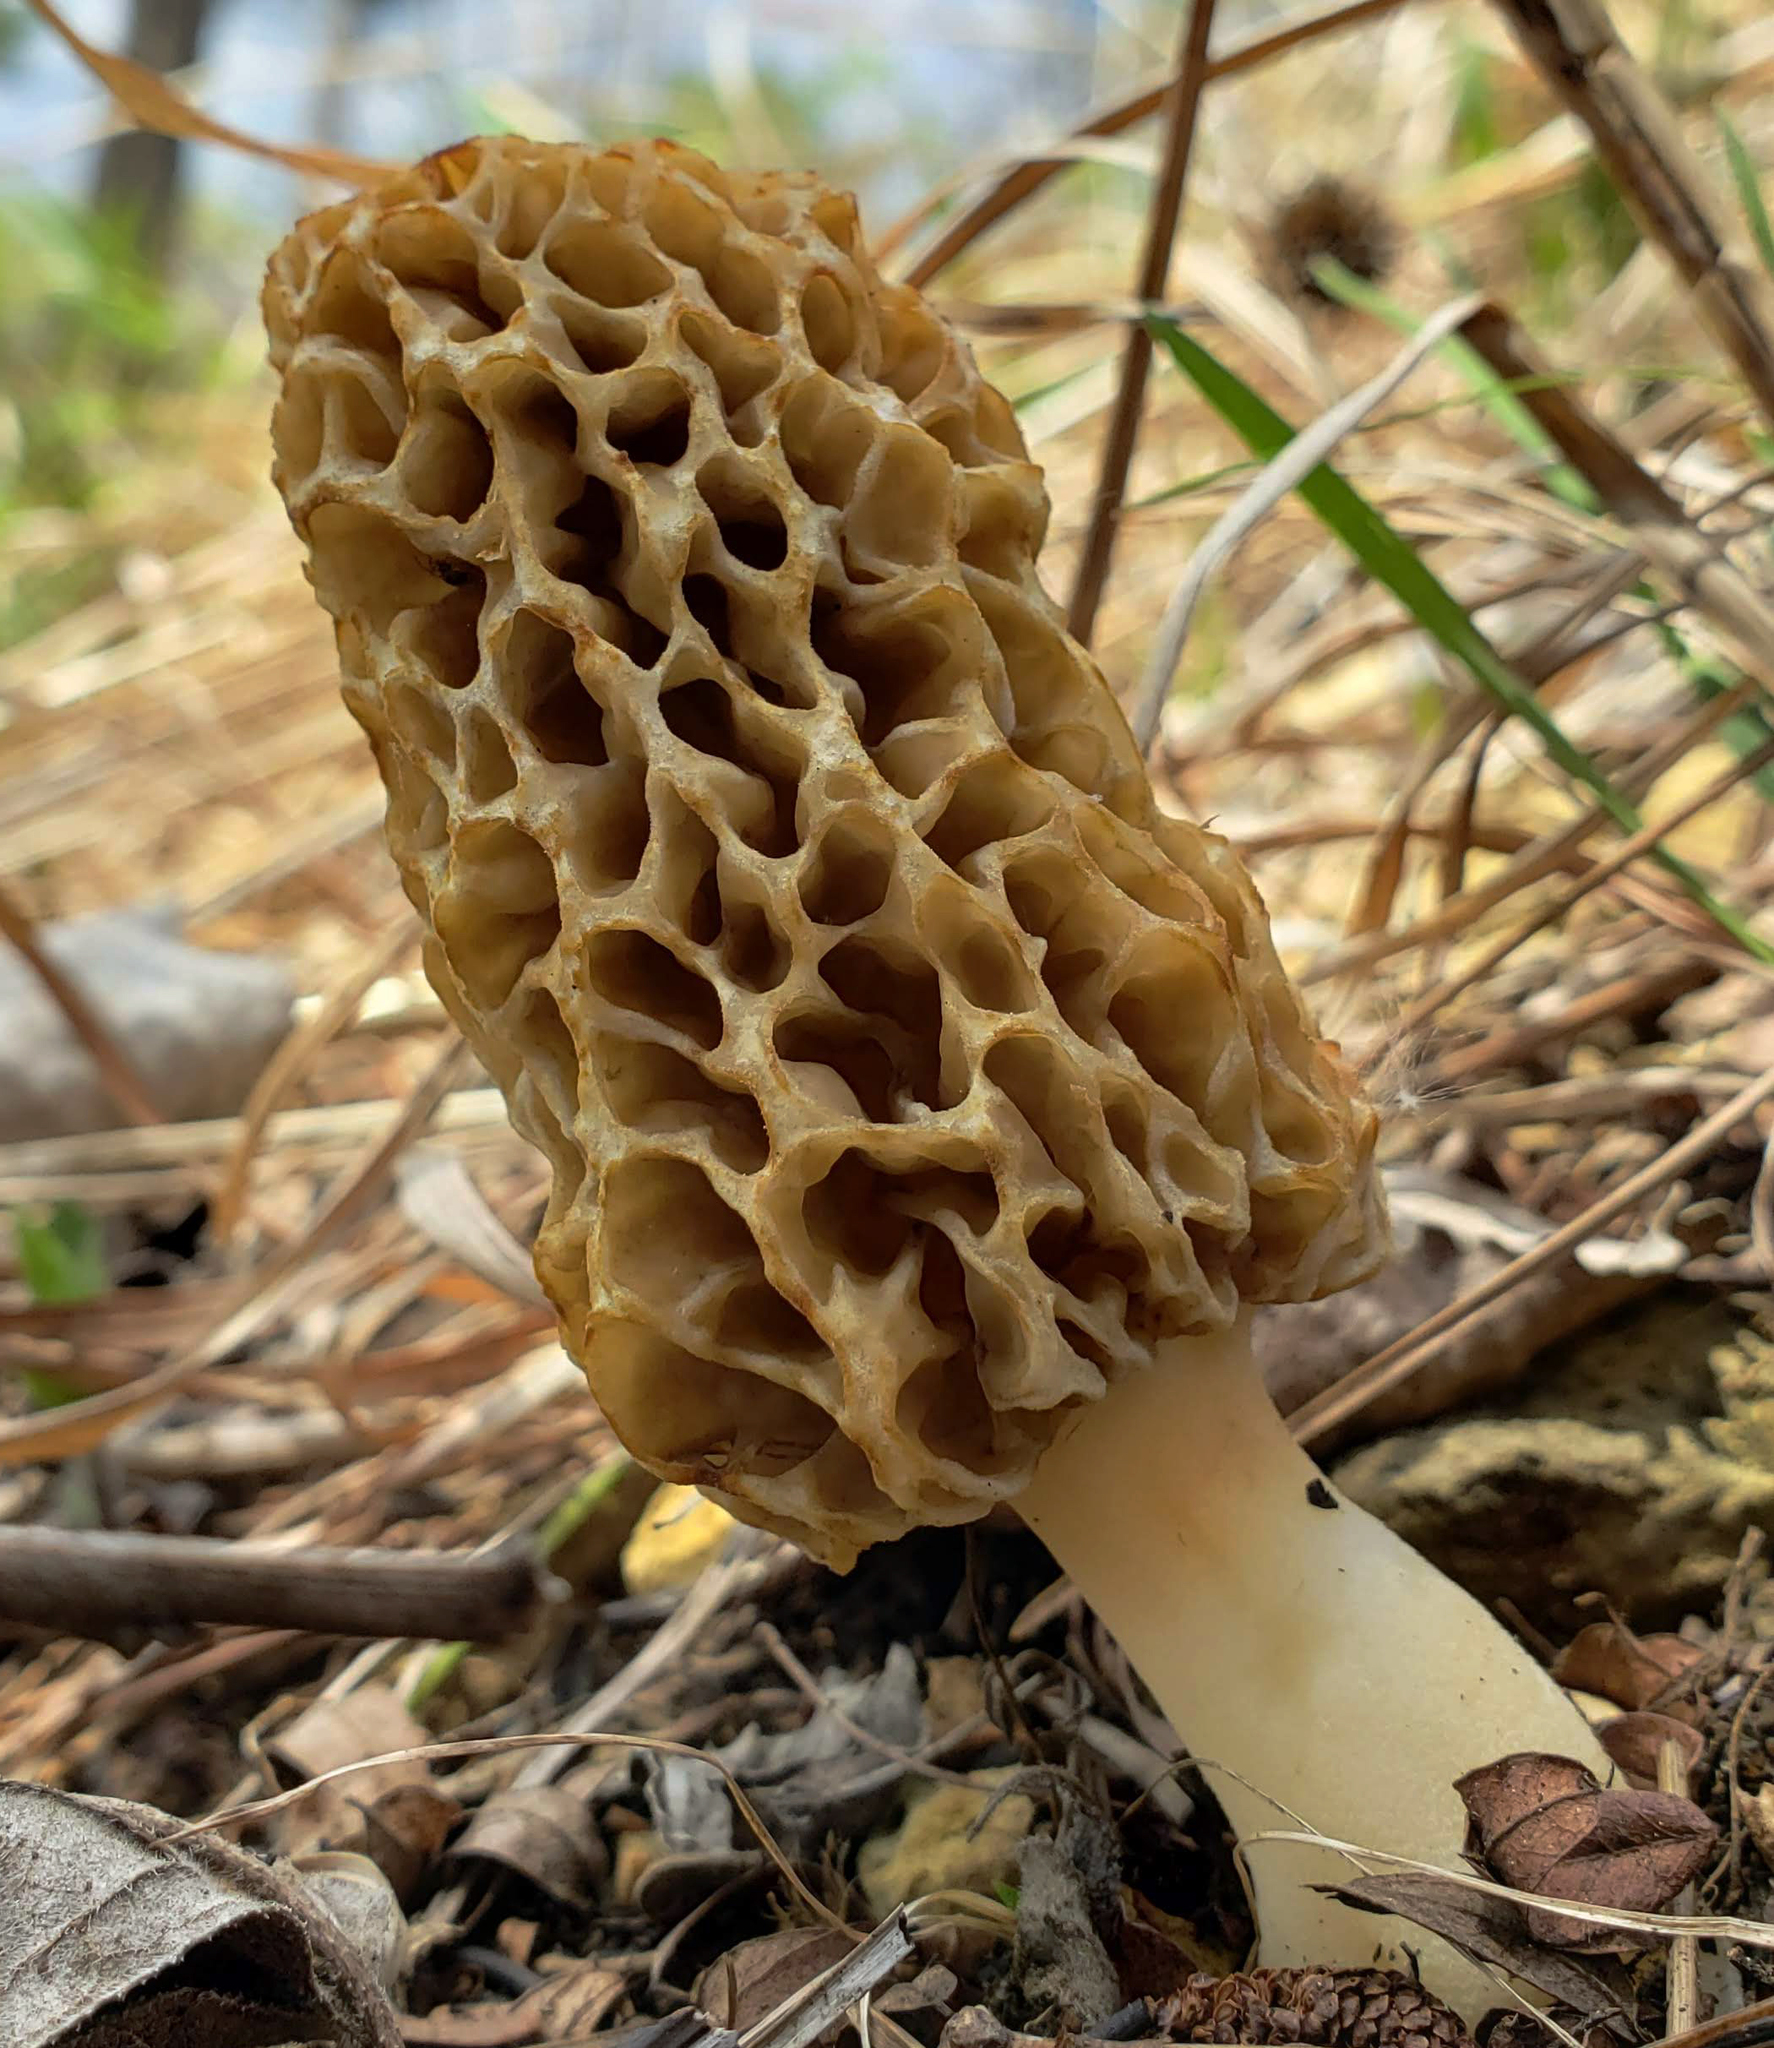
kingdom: Fungi
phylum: Ascomycota
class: Pezizomycetes
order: Pezizales
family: Morchellaceae
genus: Morchella
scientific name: Morchella americana
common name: White morel
